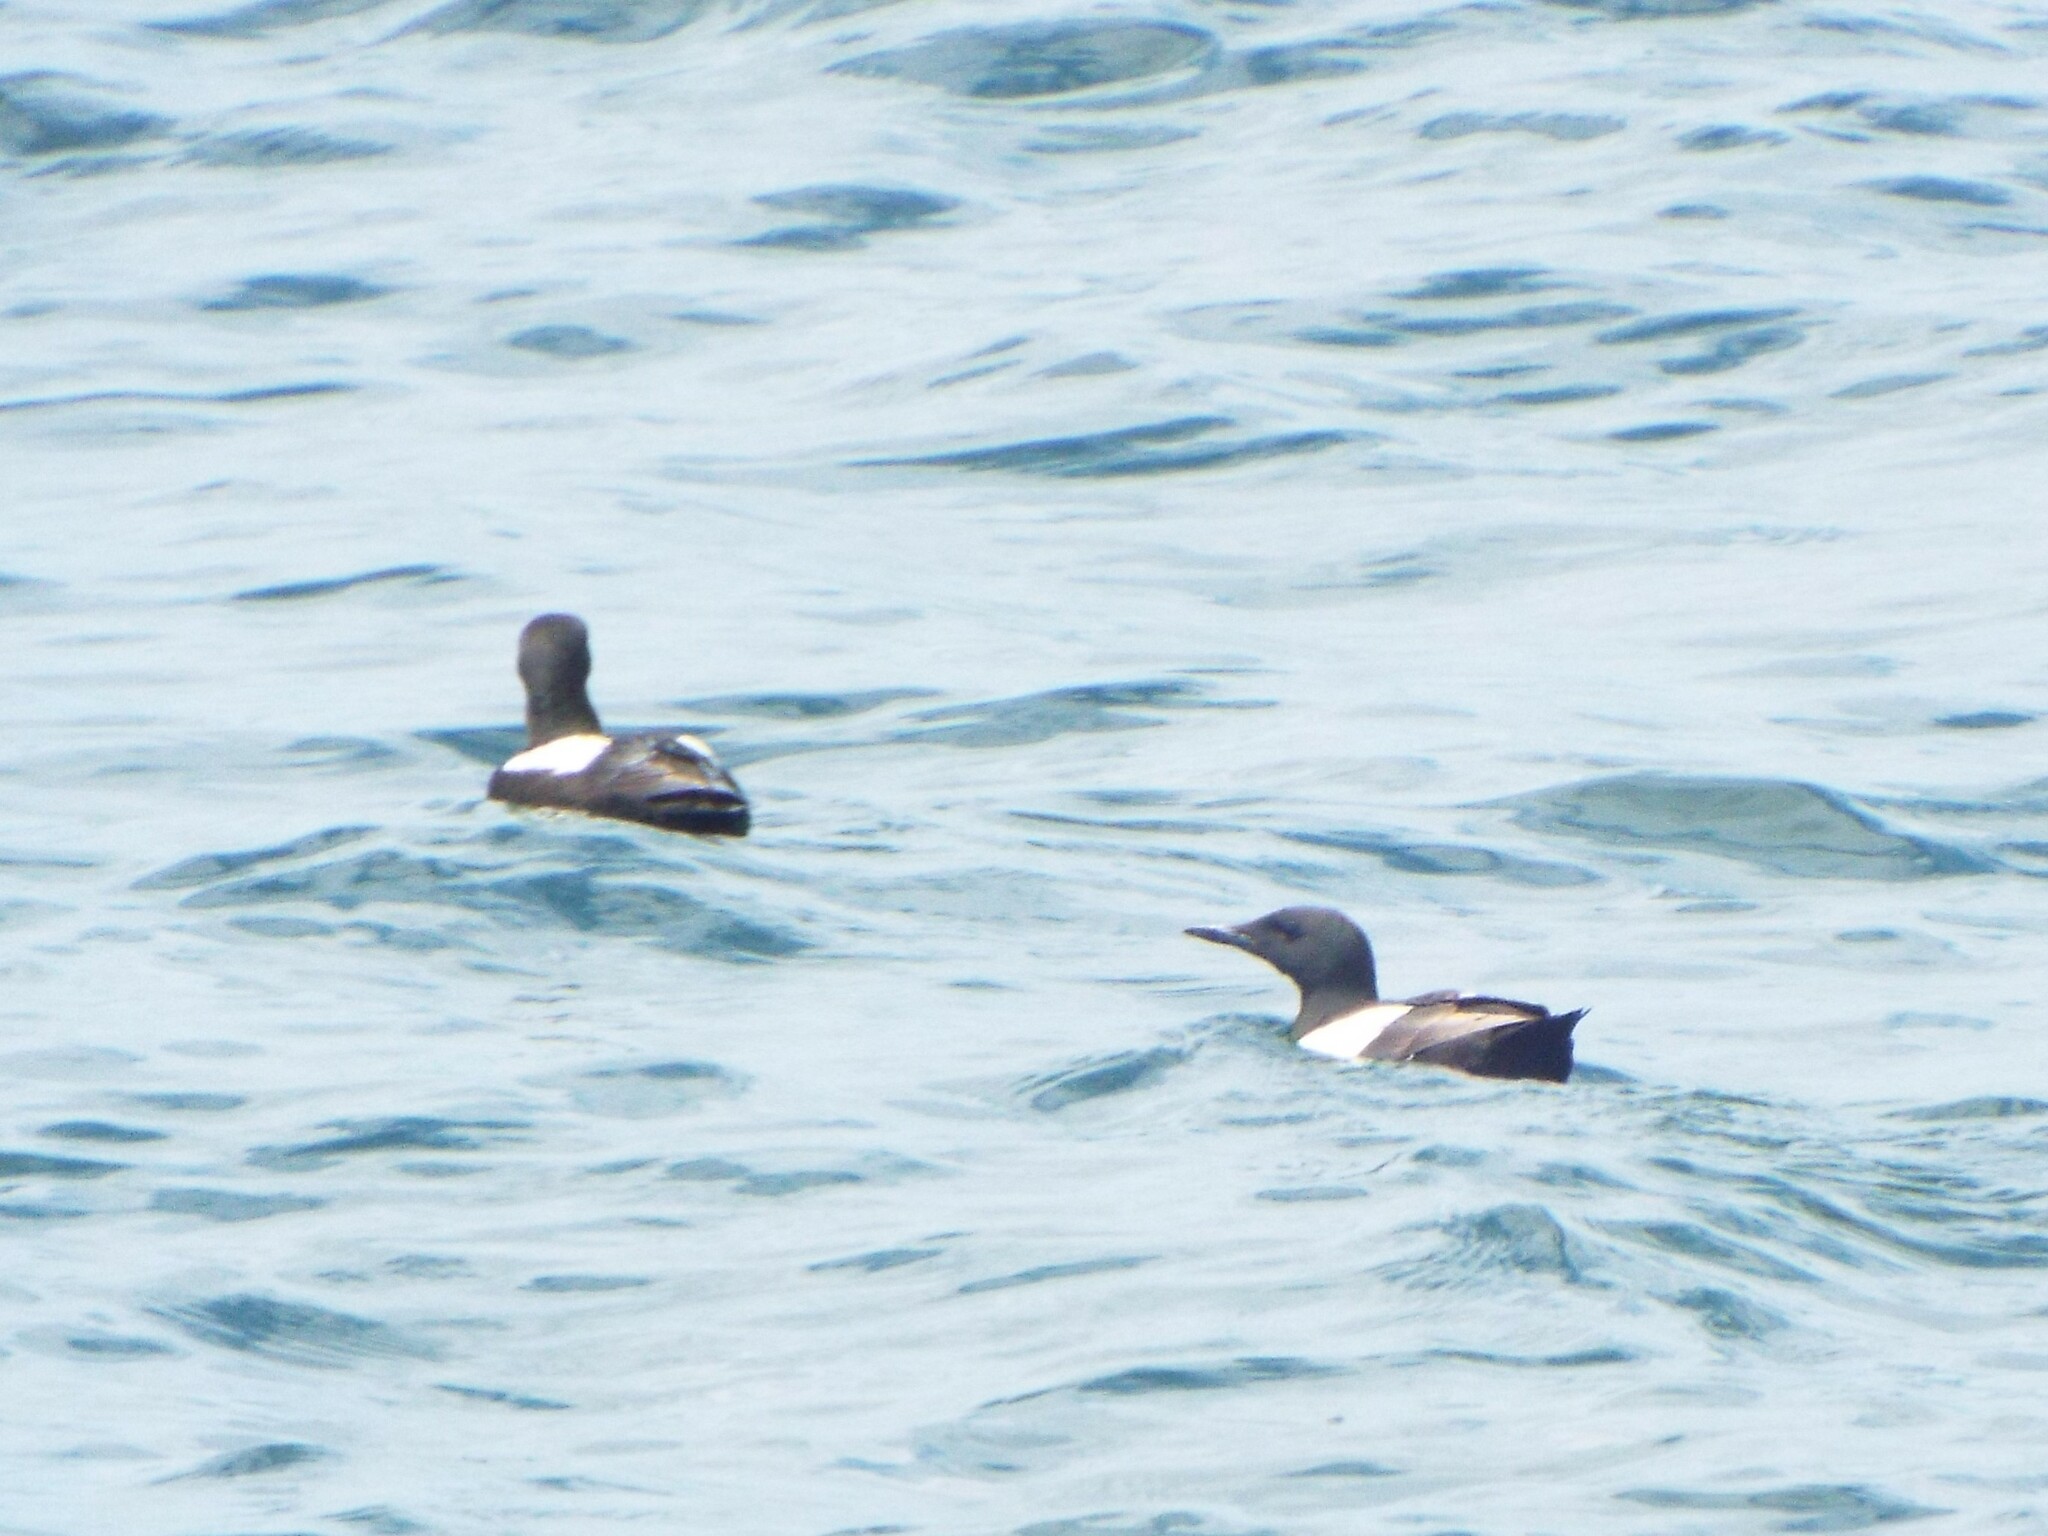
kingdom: Animalia
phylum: Chordata
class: Aves
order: Charadriiformes
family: Alcidae
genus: Cepphus
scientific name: Cepphus grylle
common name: Black guillemot
